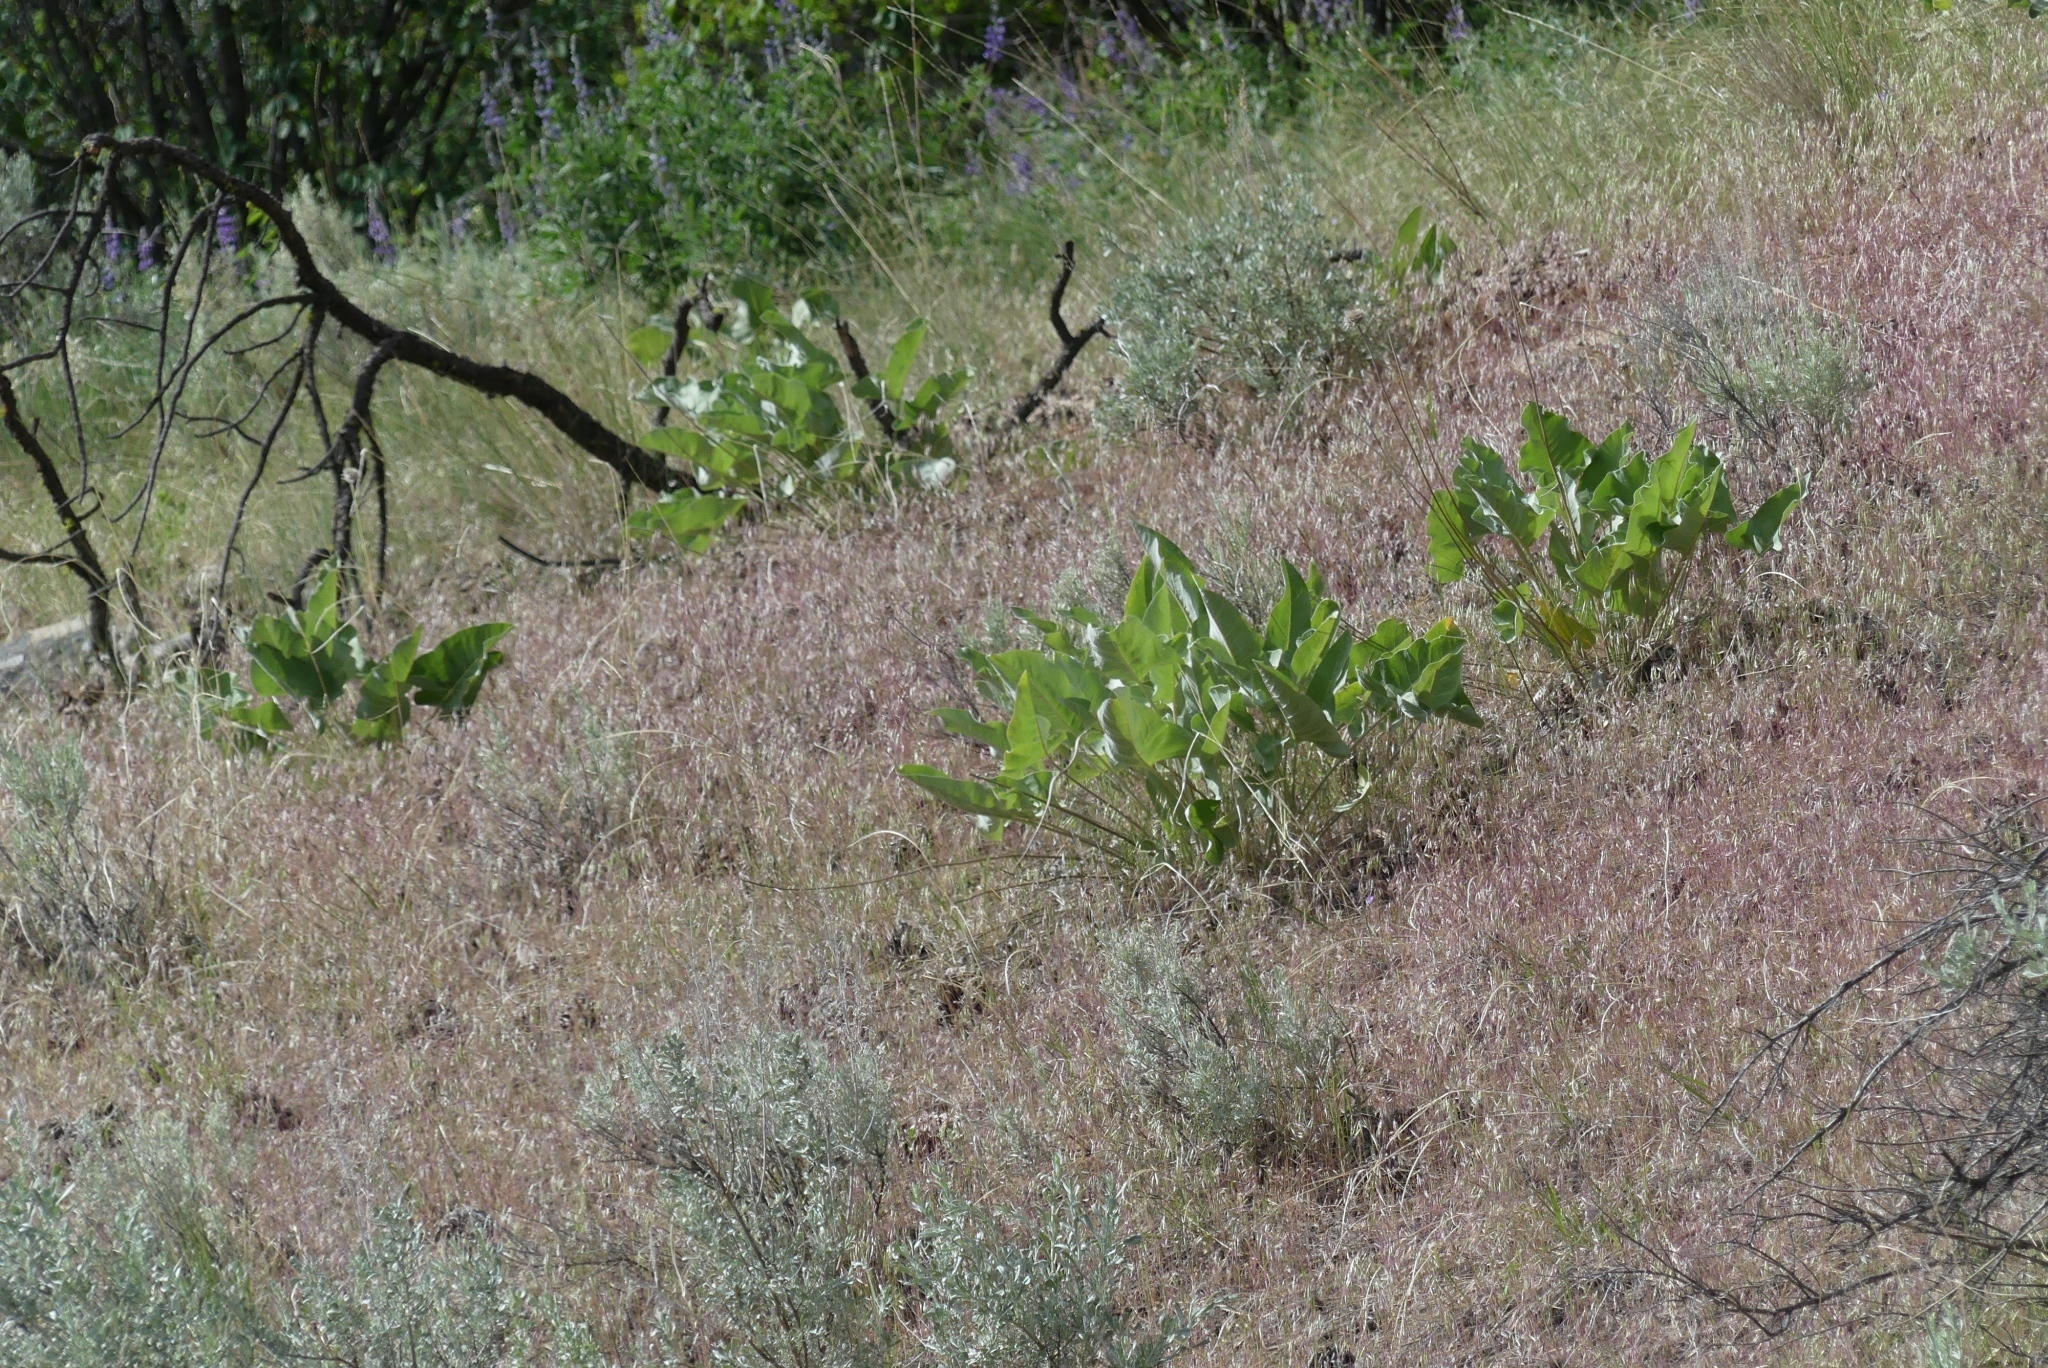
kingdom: Plantae
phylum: Tracheophyta
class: Magnoliopsida
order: Asterales
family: Asteraceae
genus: Wyethia
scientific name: Wyethia sagittata
